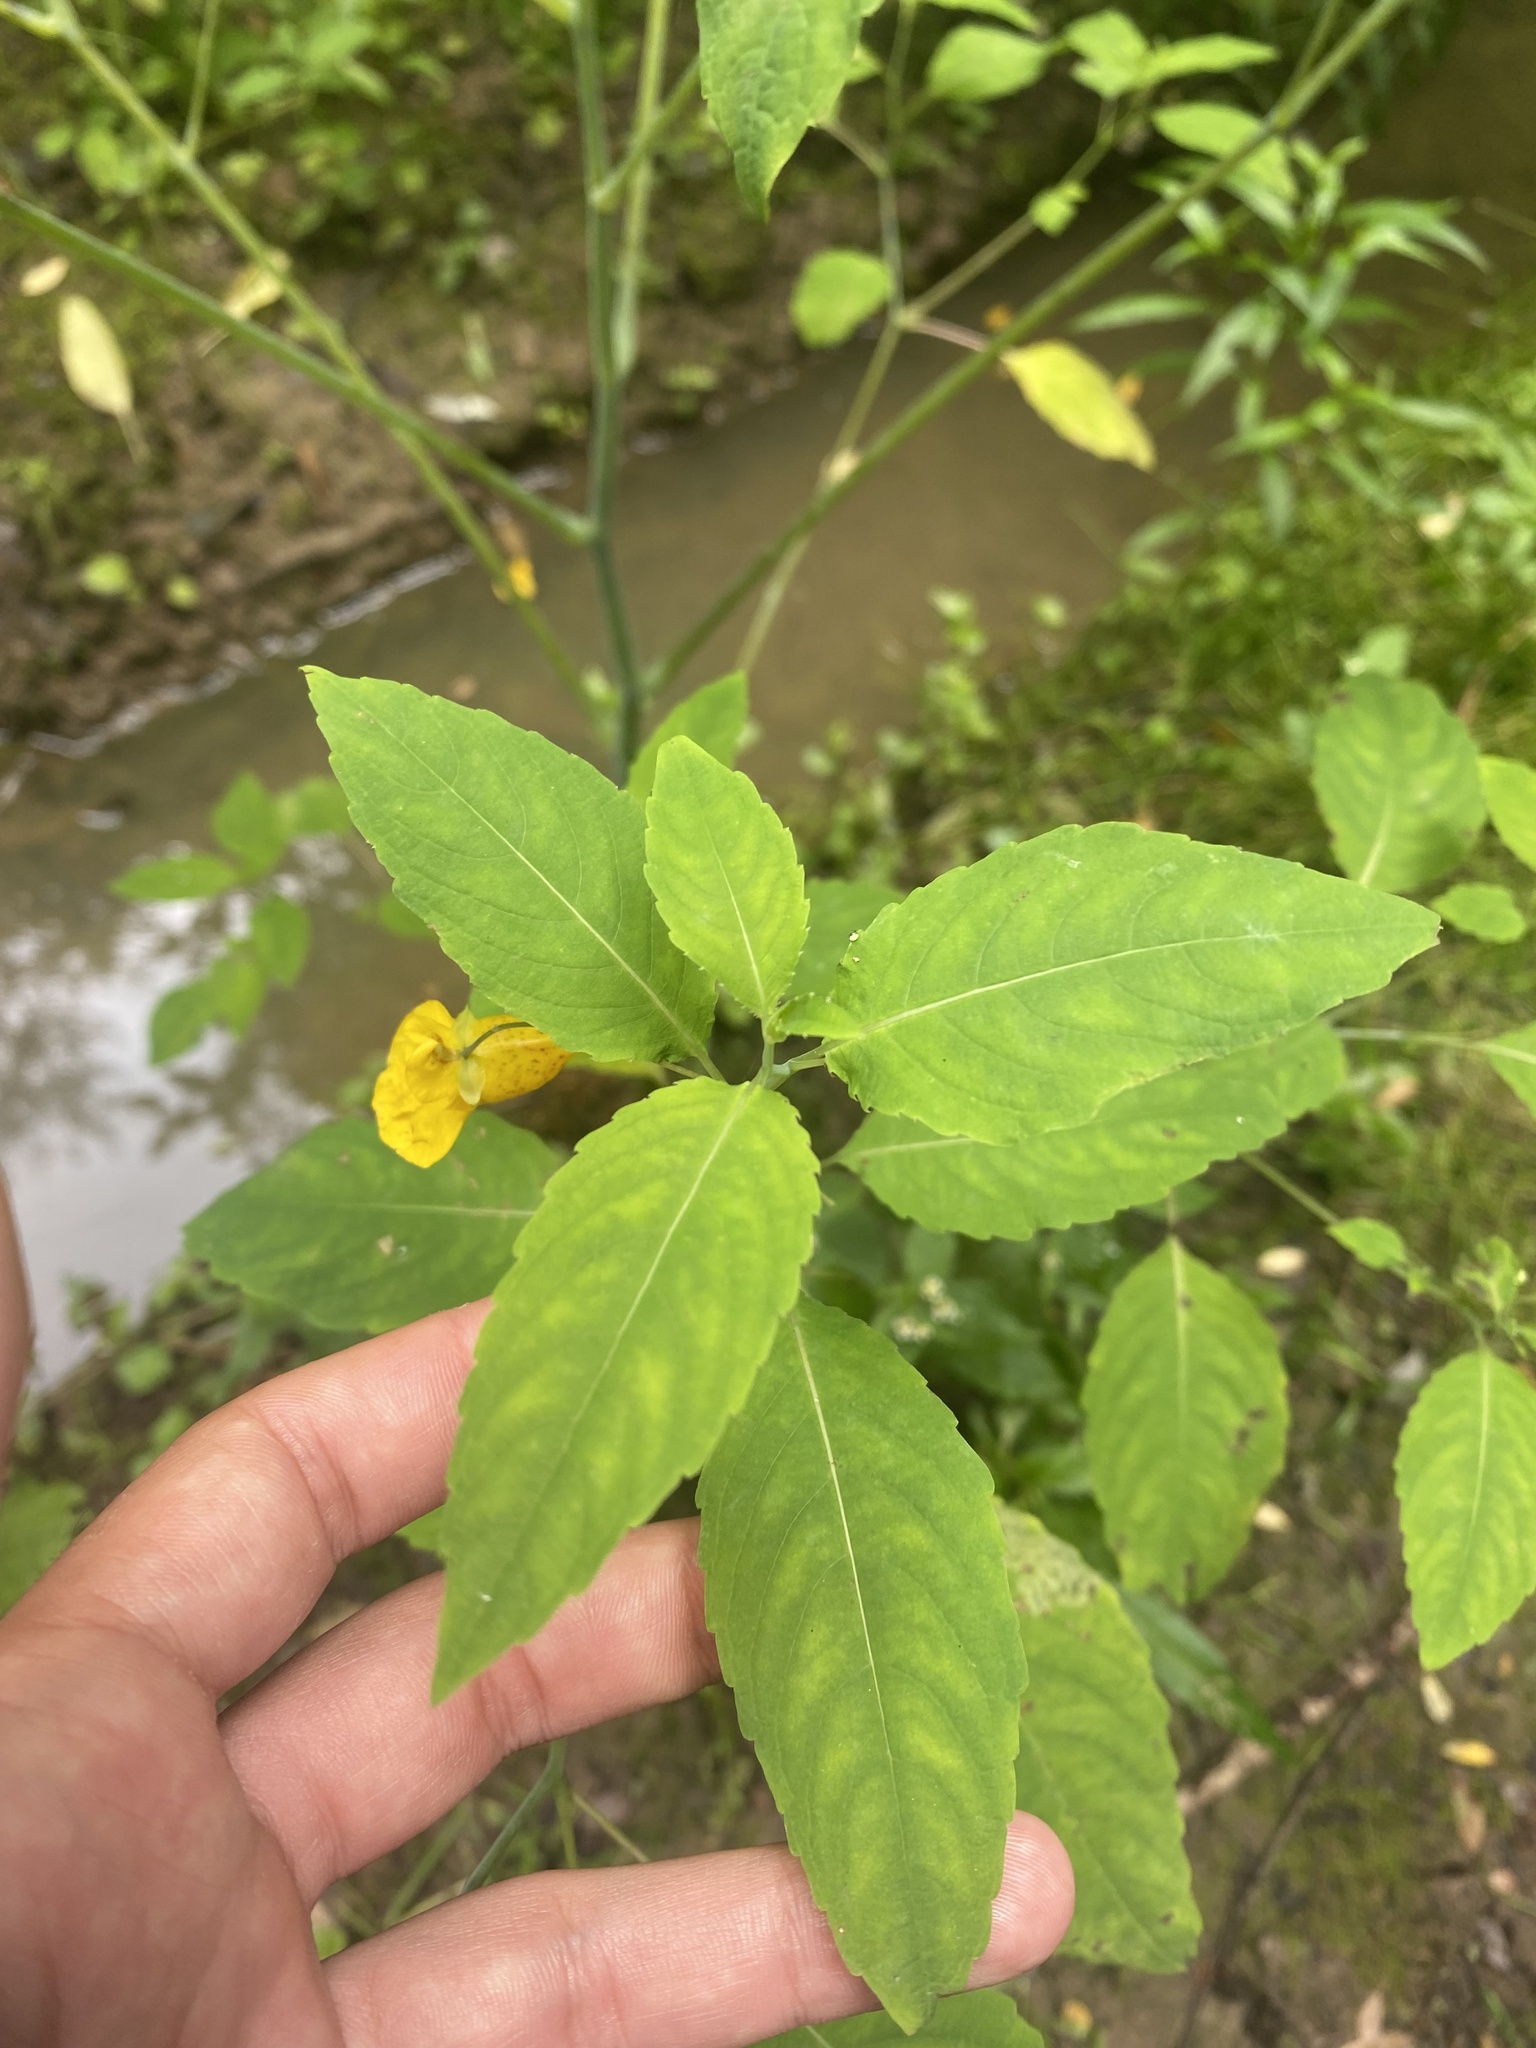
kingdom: Plantae
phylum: Tracheophyta
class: Magnoliopsida
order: Ericales
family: Balsaminaceae
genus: Impatiens
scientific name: Impatiens noli-tangere
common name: Touch-me-not balsam
